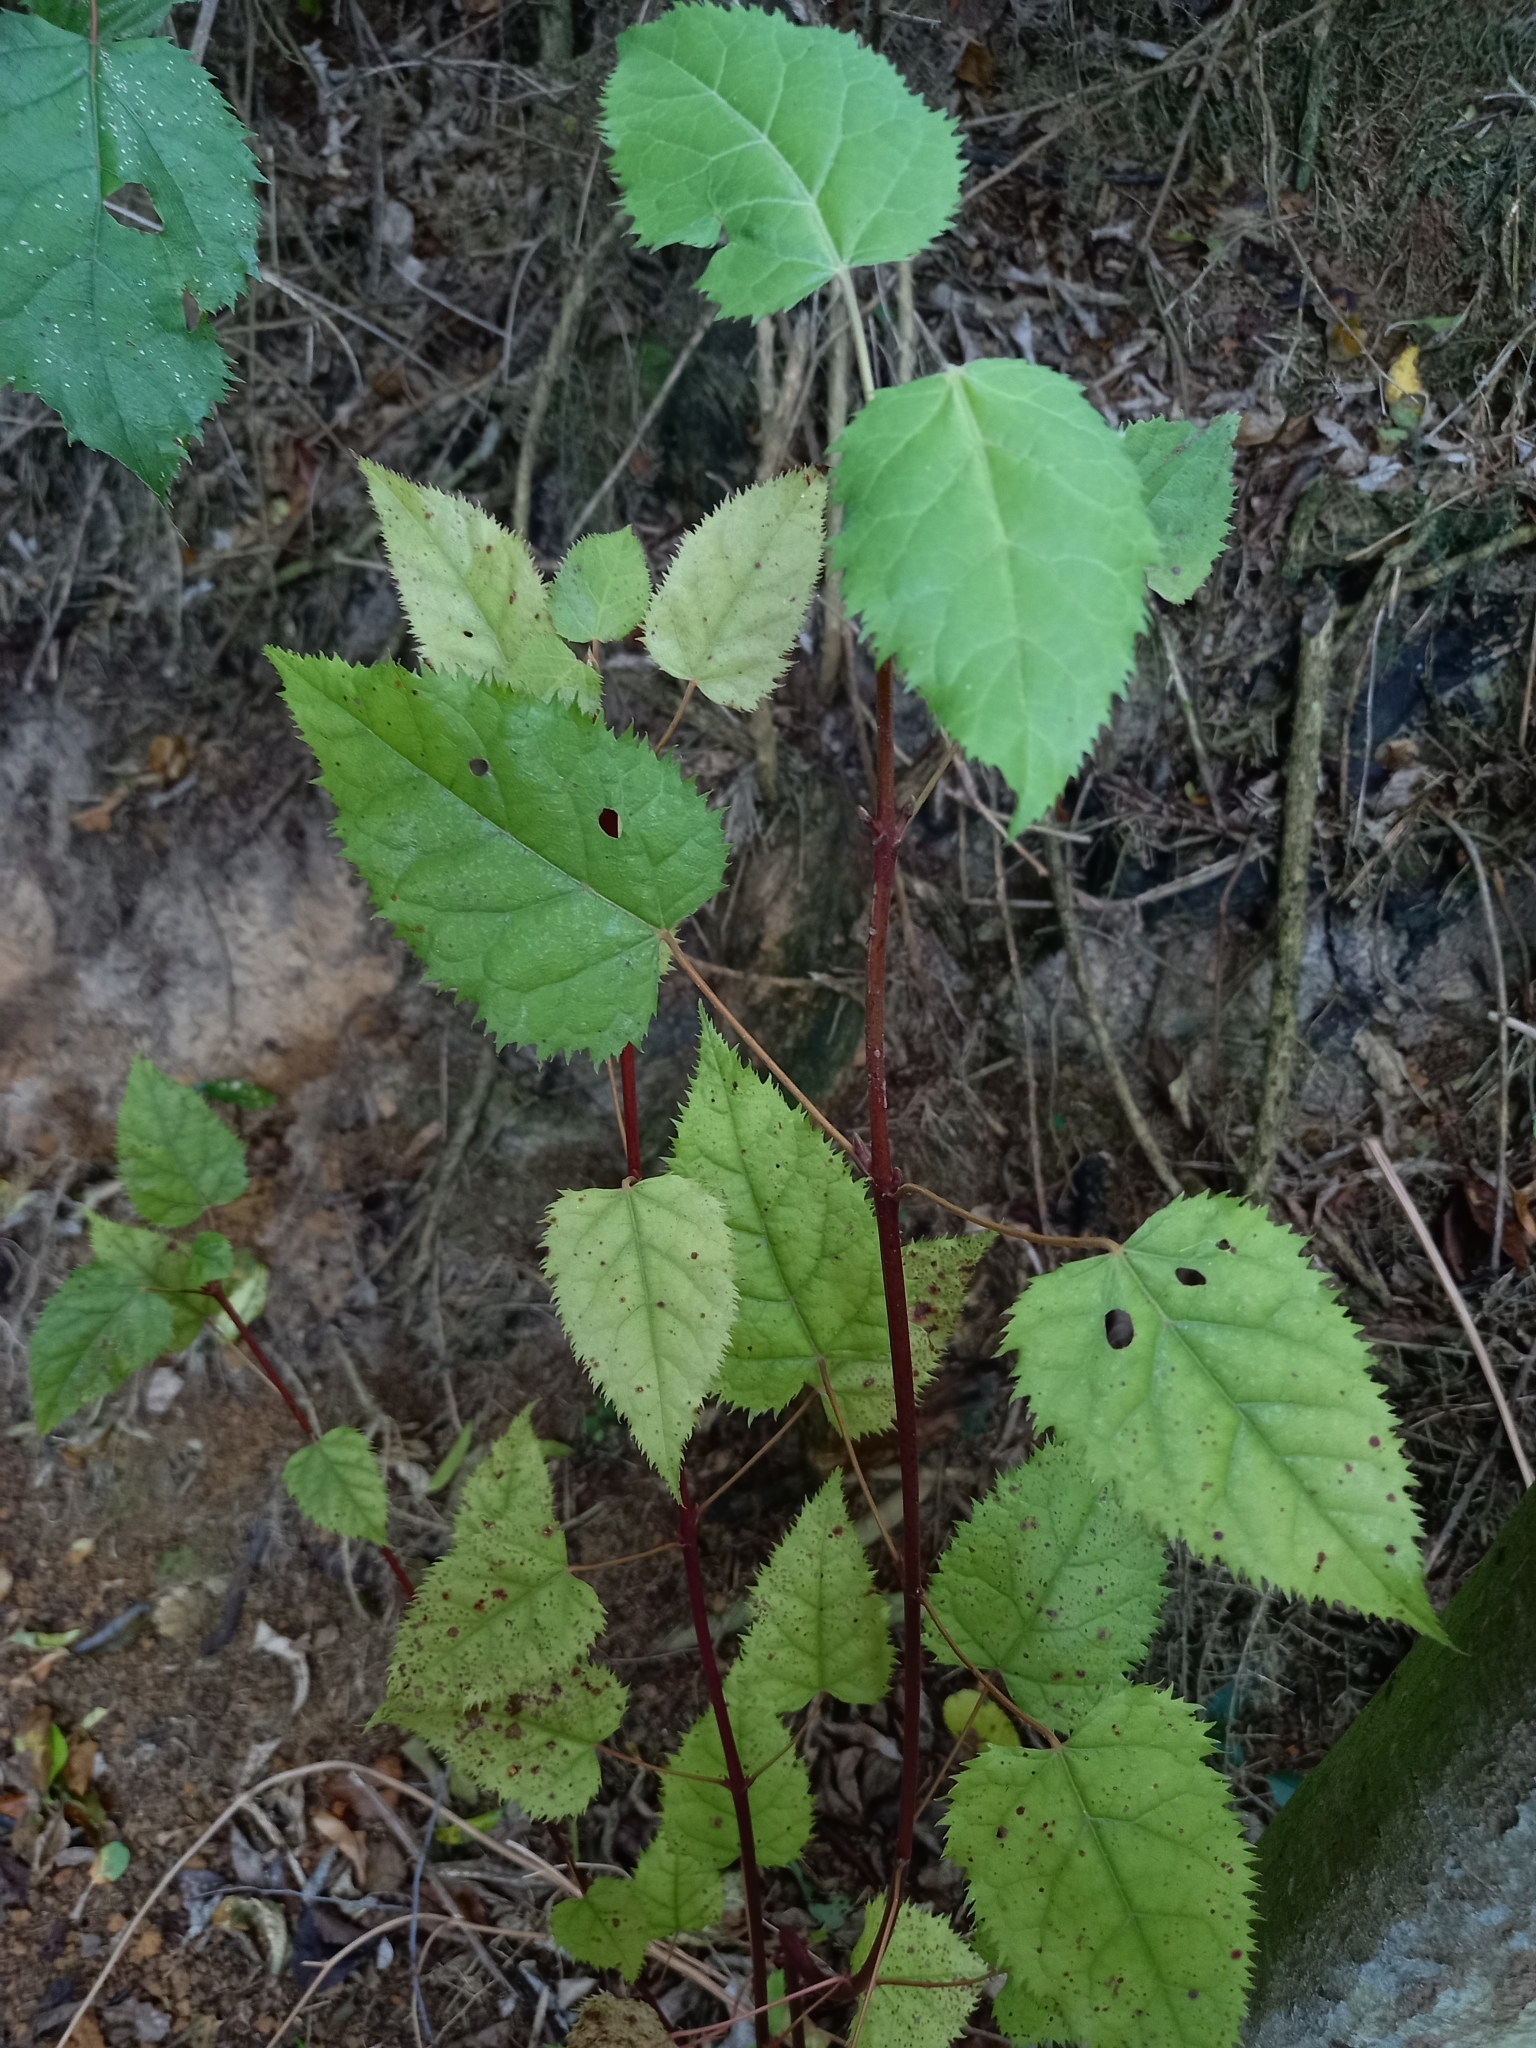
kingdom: Plantae
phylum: Tracheophyta
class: Magnoliopsida
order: Oxalidales
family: Elaeocarpaceae
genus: Aristotelia
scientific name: Aristotelia serrata
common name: New zealand wineberry
